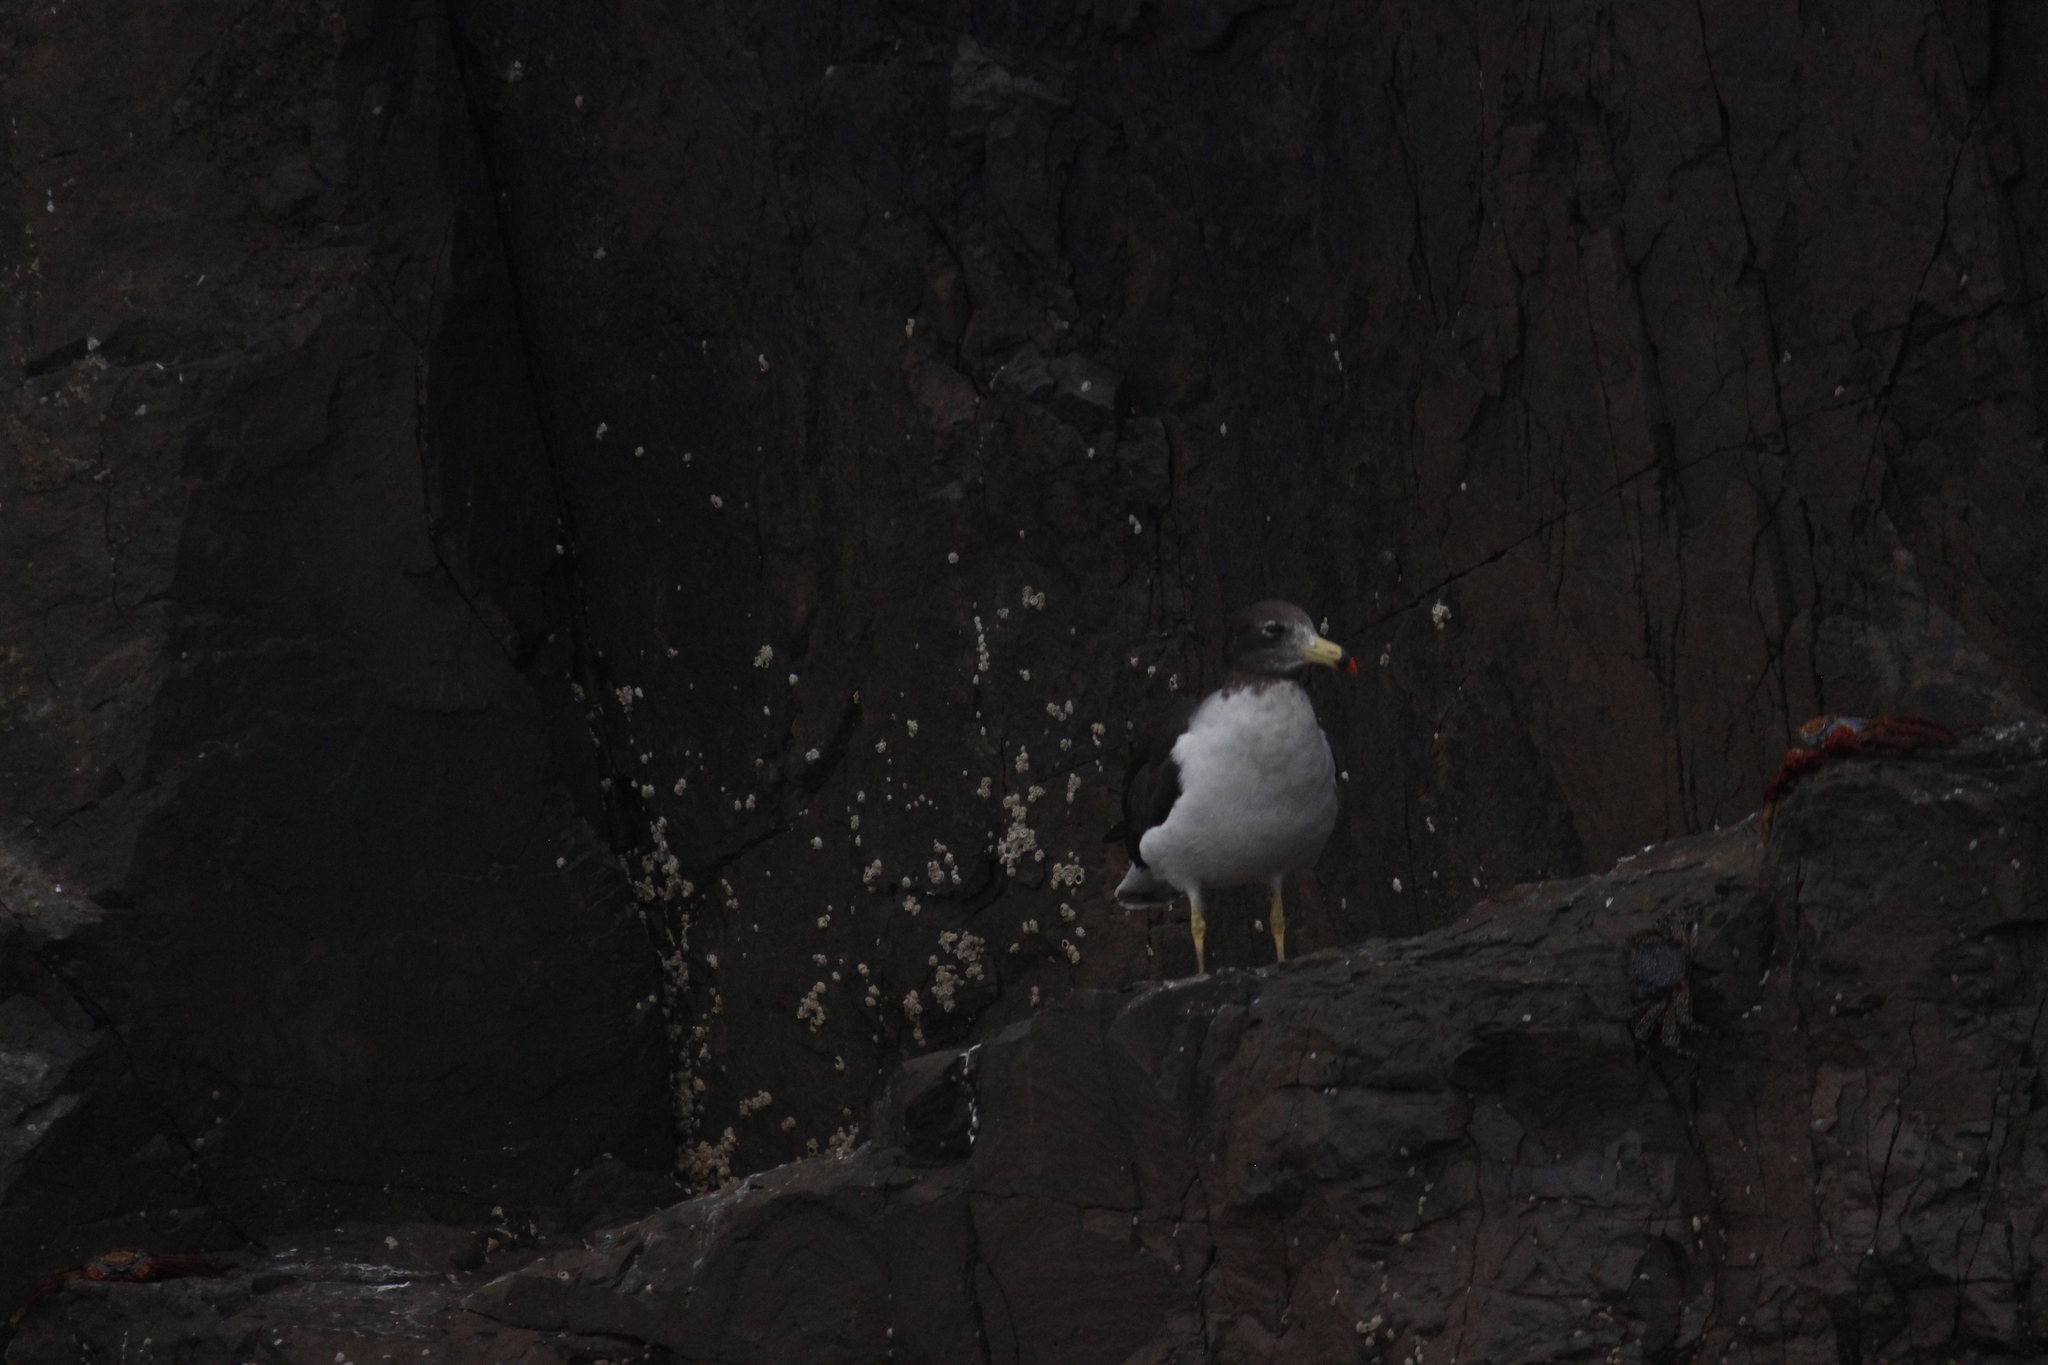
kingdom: Animalia
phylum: Chordata
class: Aves
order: Charadriiformes
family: Laridae
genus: Larus
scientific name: Larus belcheri
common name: Belcher's gull
